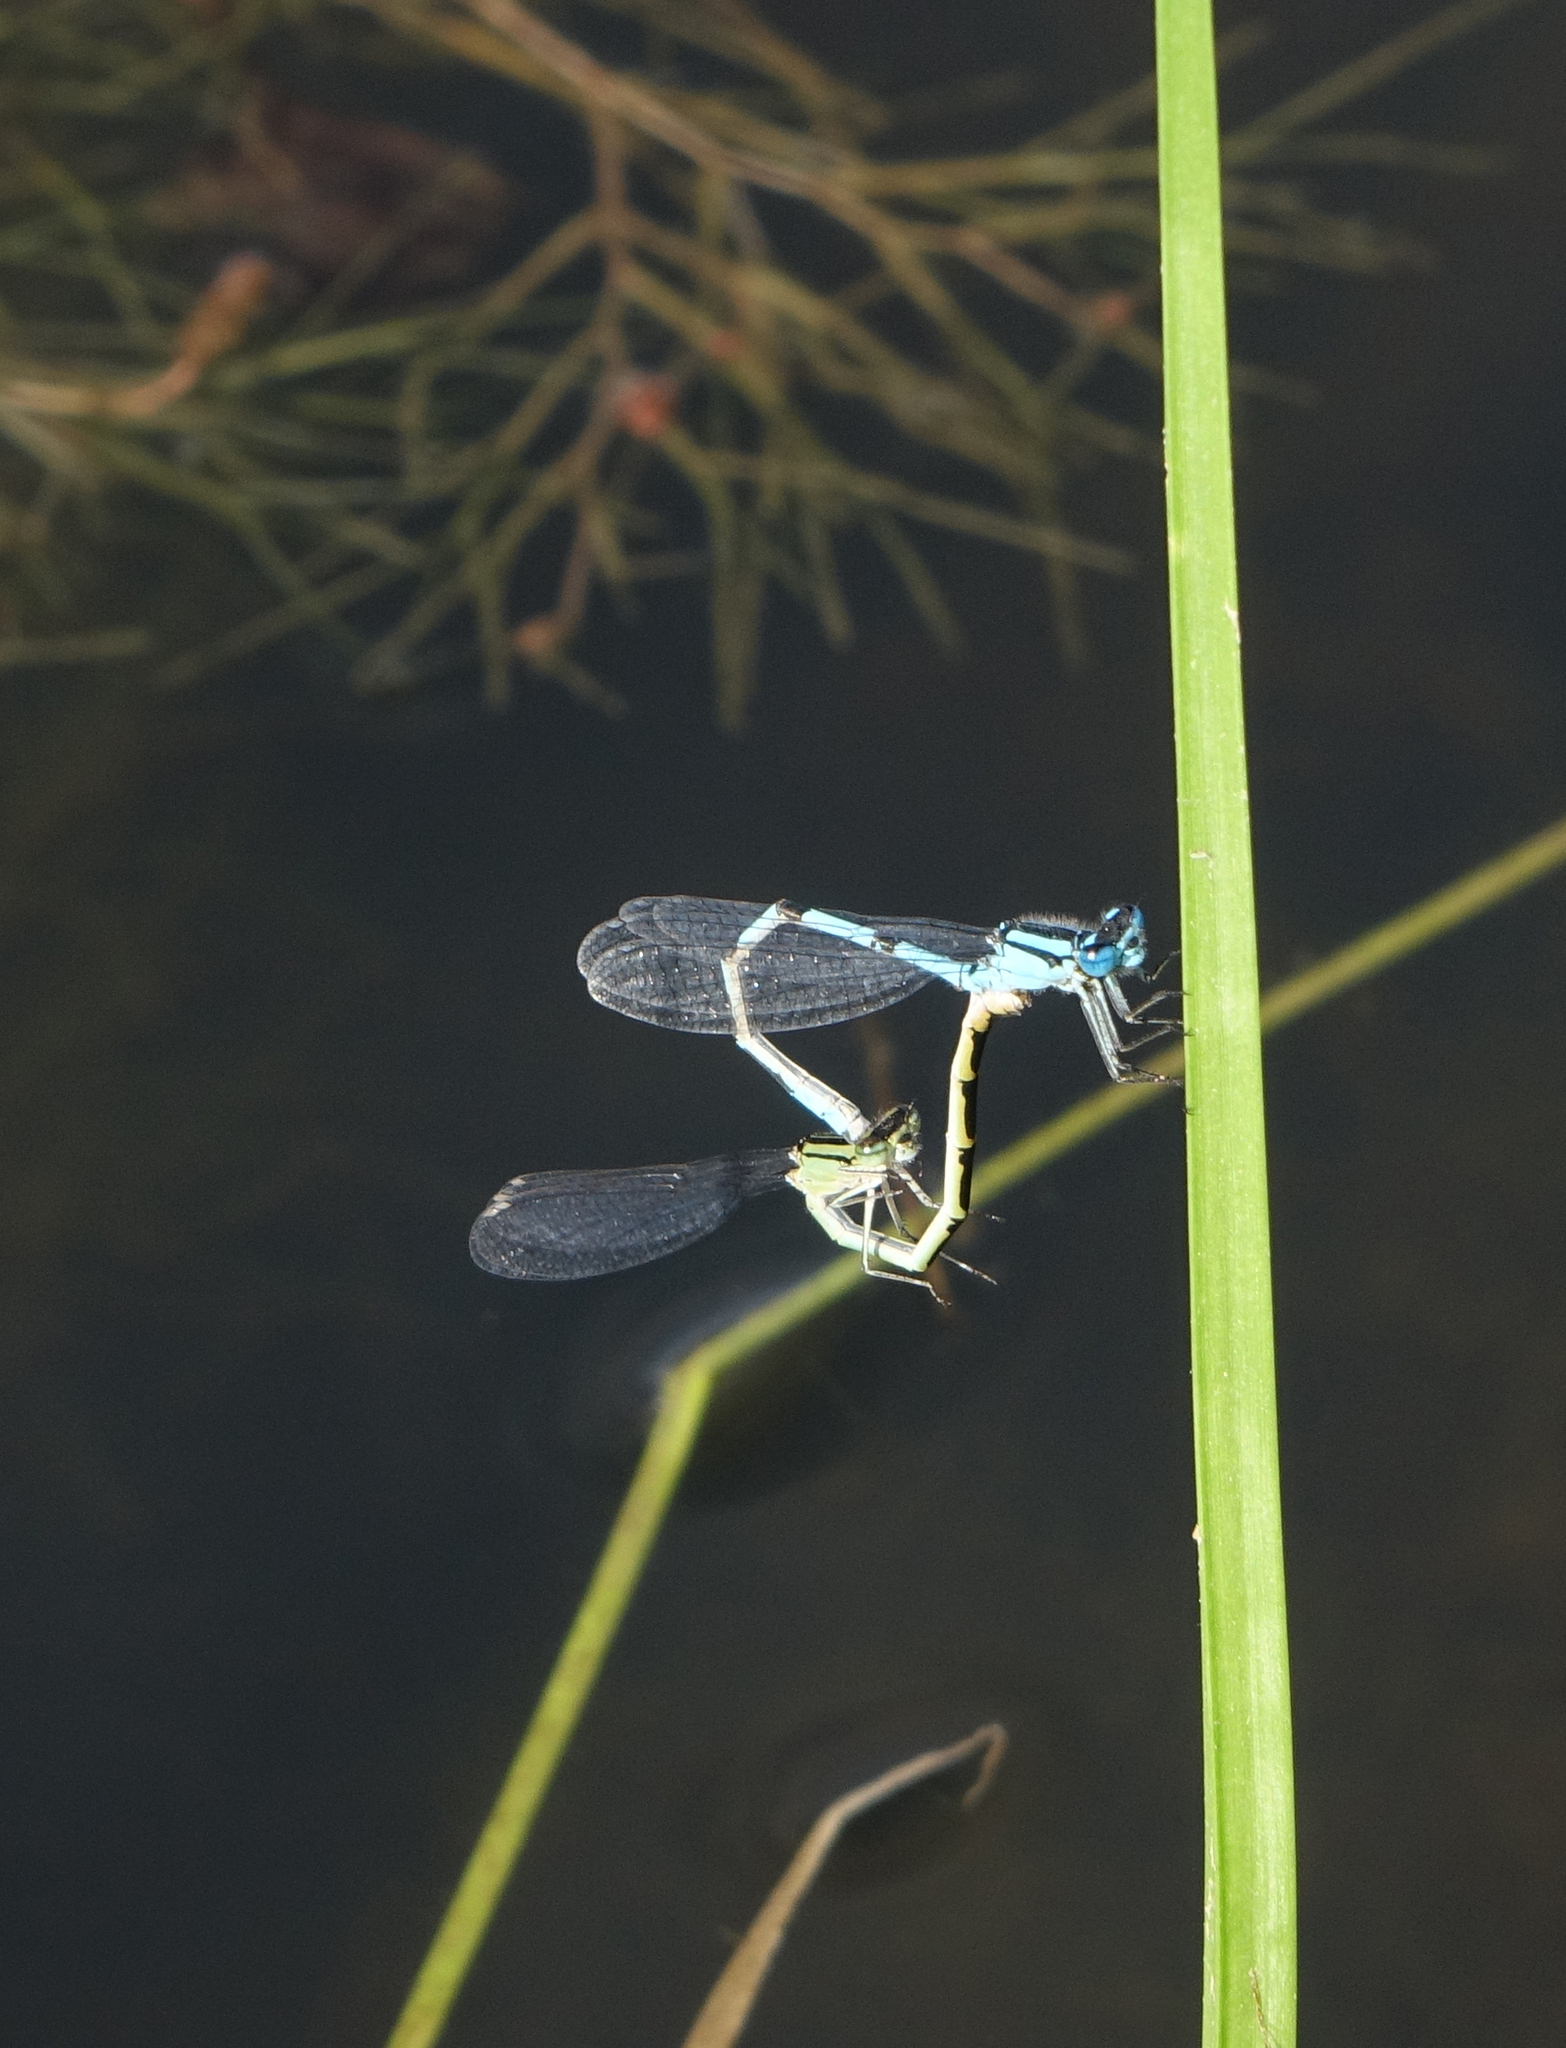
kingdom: Animalia
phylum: Arthropoda
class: Insecta
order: Odonata
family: Coenagrionidae
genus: Enallagma
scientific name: Enallagma cyathigerum
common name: Common blue damselfly
